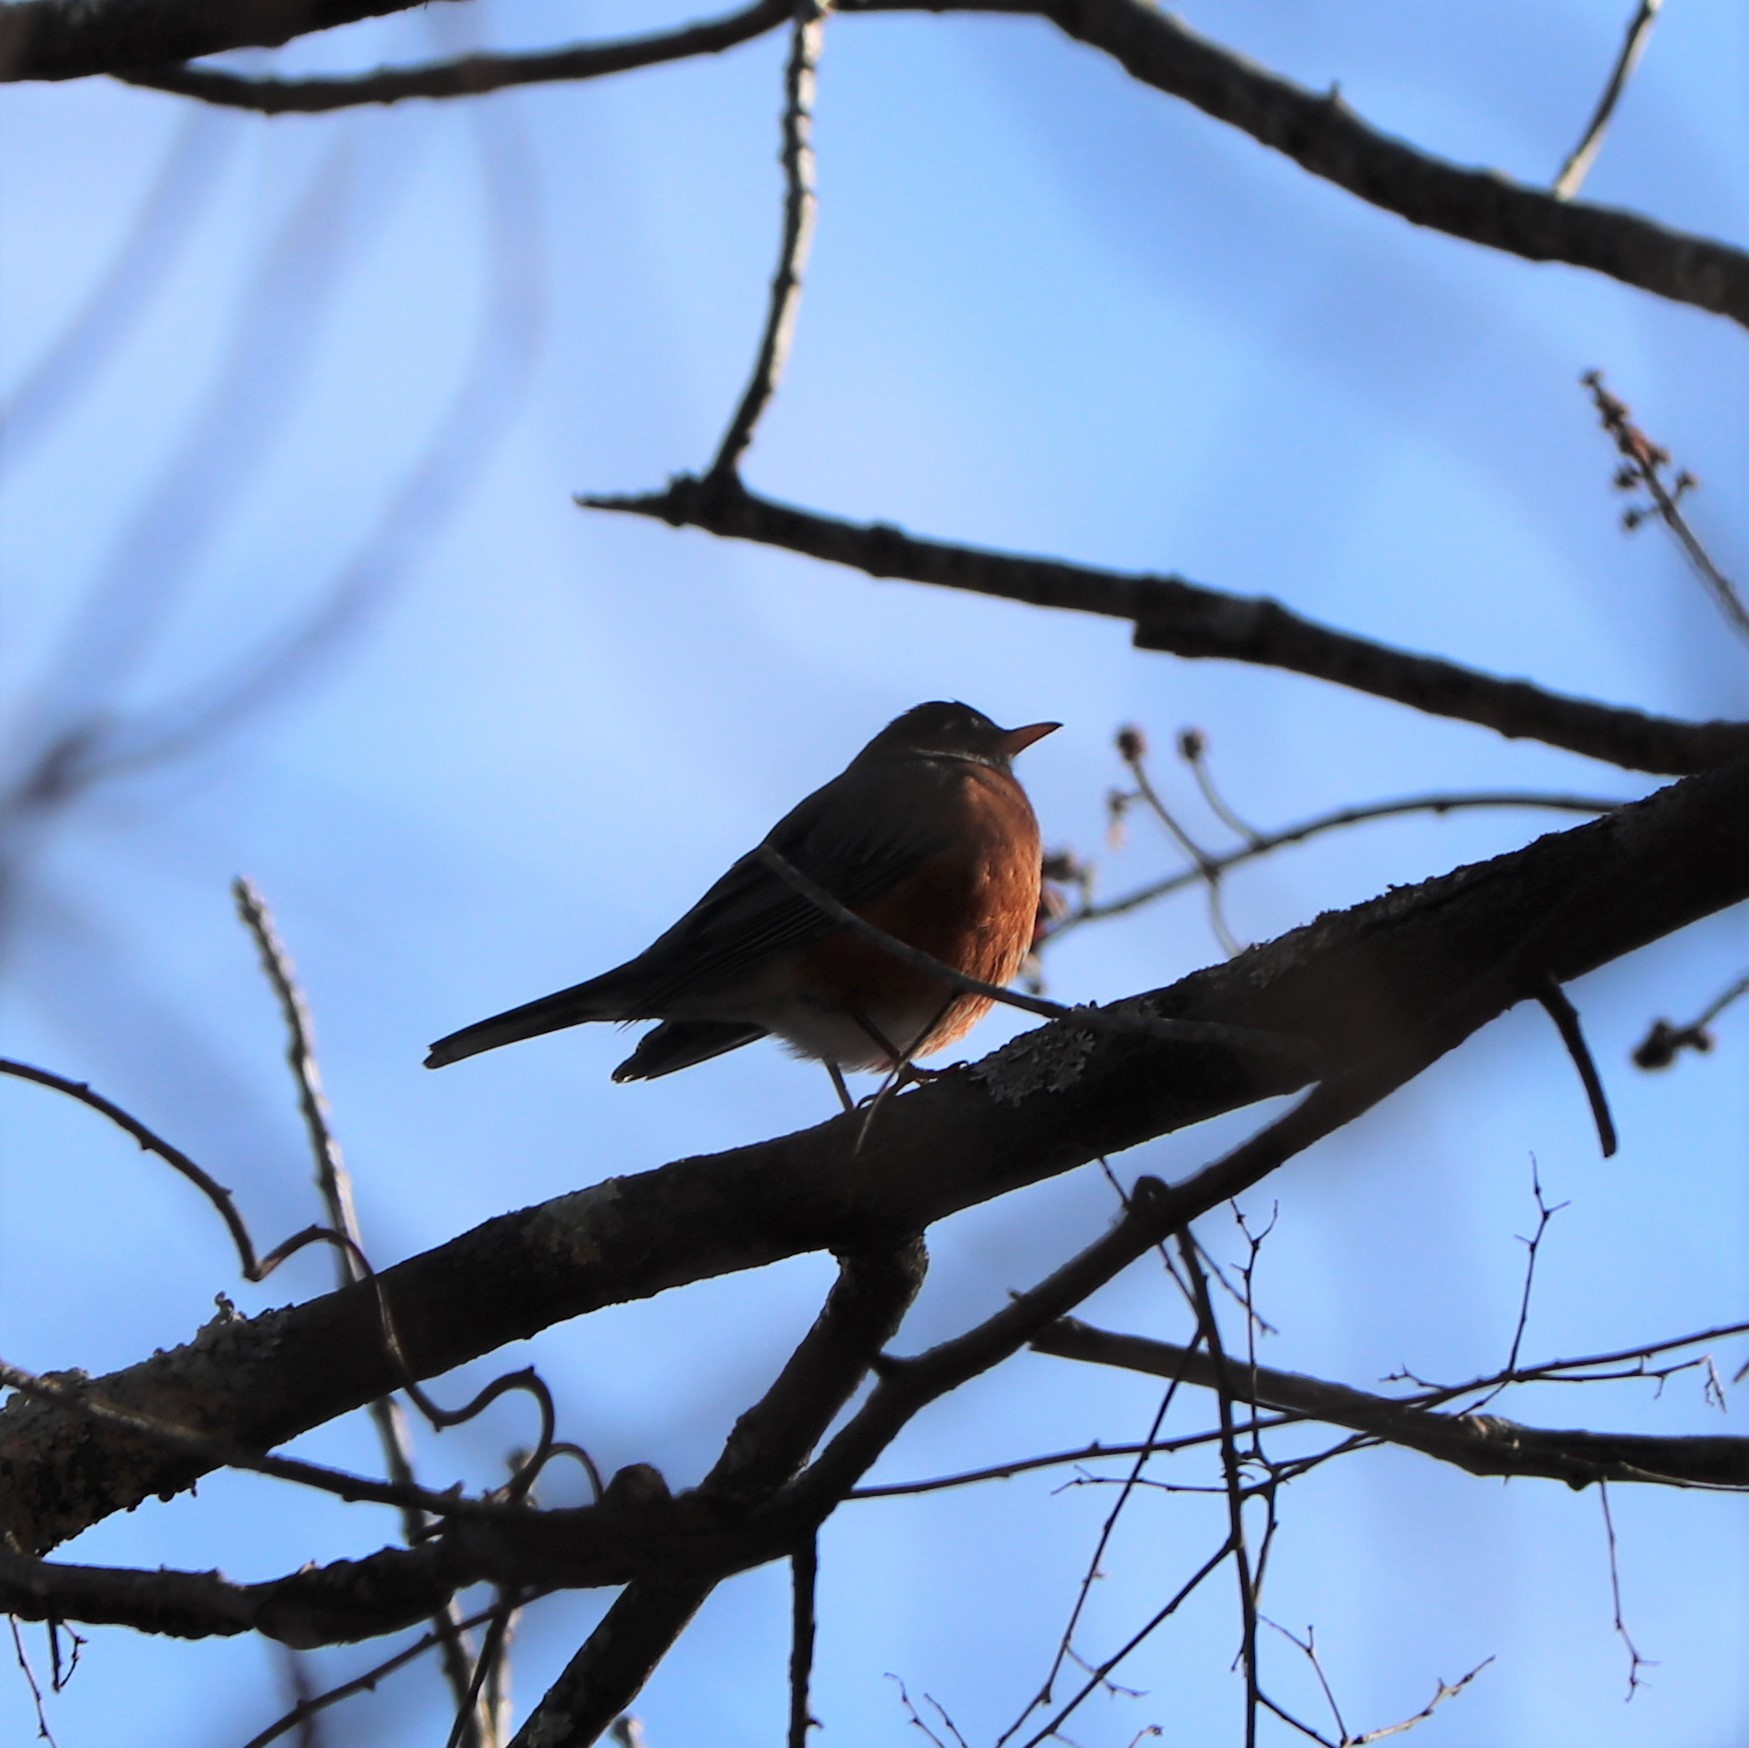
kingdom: Animalia
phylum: Chordata
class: Aves
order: Passeriformes
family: Turdidae
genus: Turdus
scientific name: Turdus migratorius
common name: American robin
